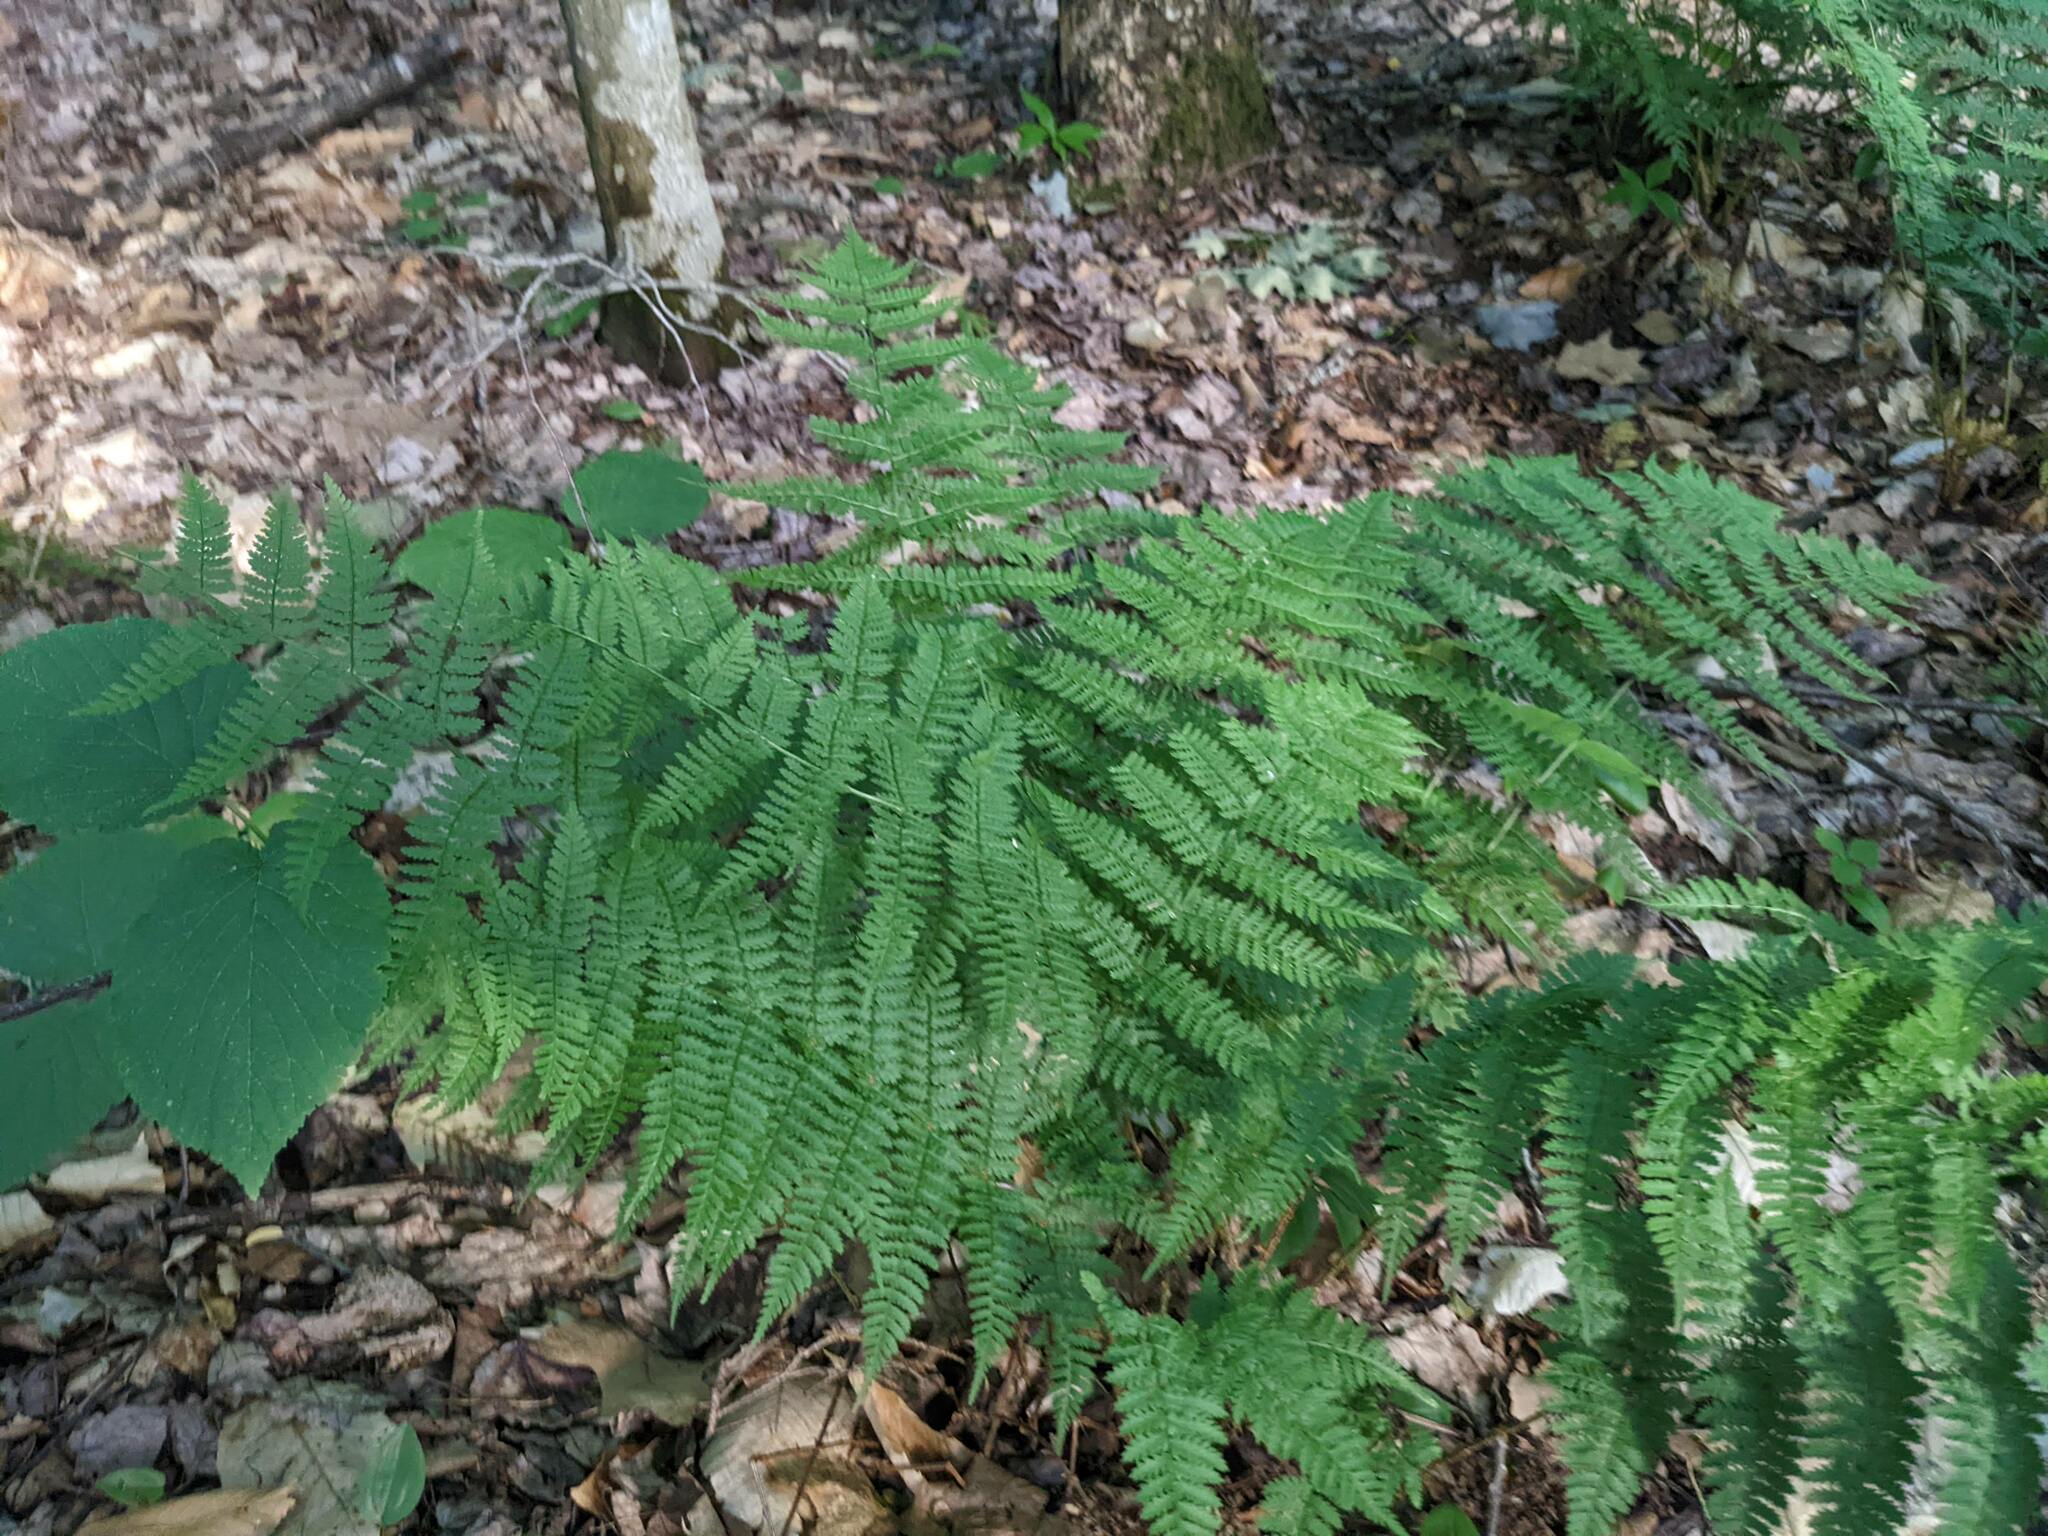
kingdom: Plantae
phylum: Tracheophyta
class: Polypodiopsida
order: Polypodiales
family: Dryopteridaceae
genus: Dryopteris
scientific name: Dryopteris intermedia
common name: Evergreen wood fern
